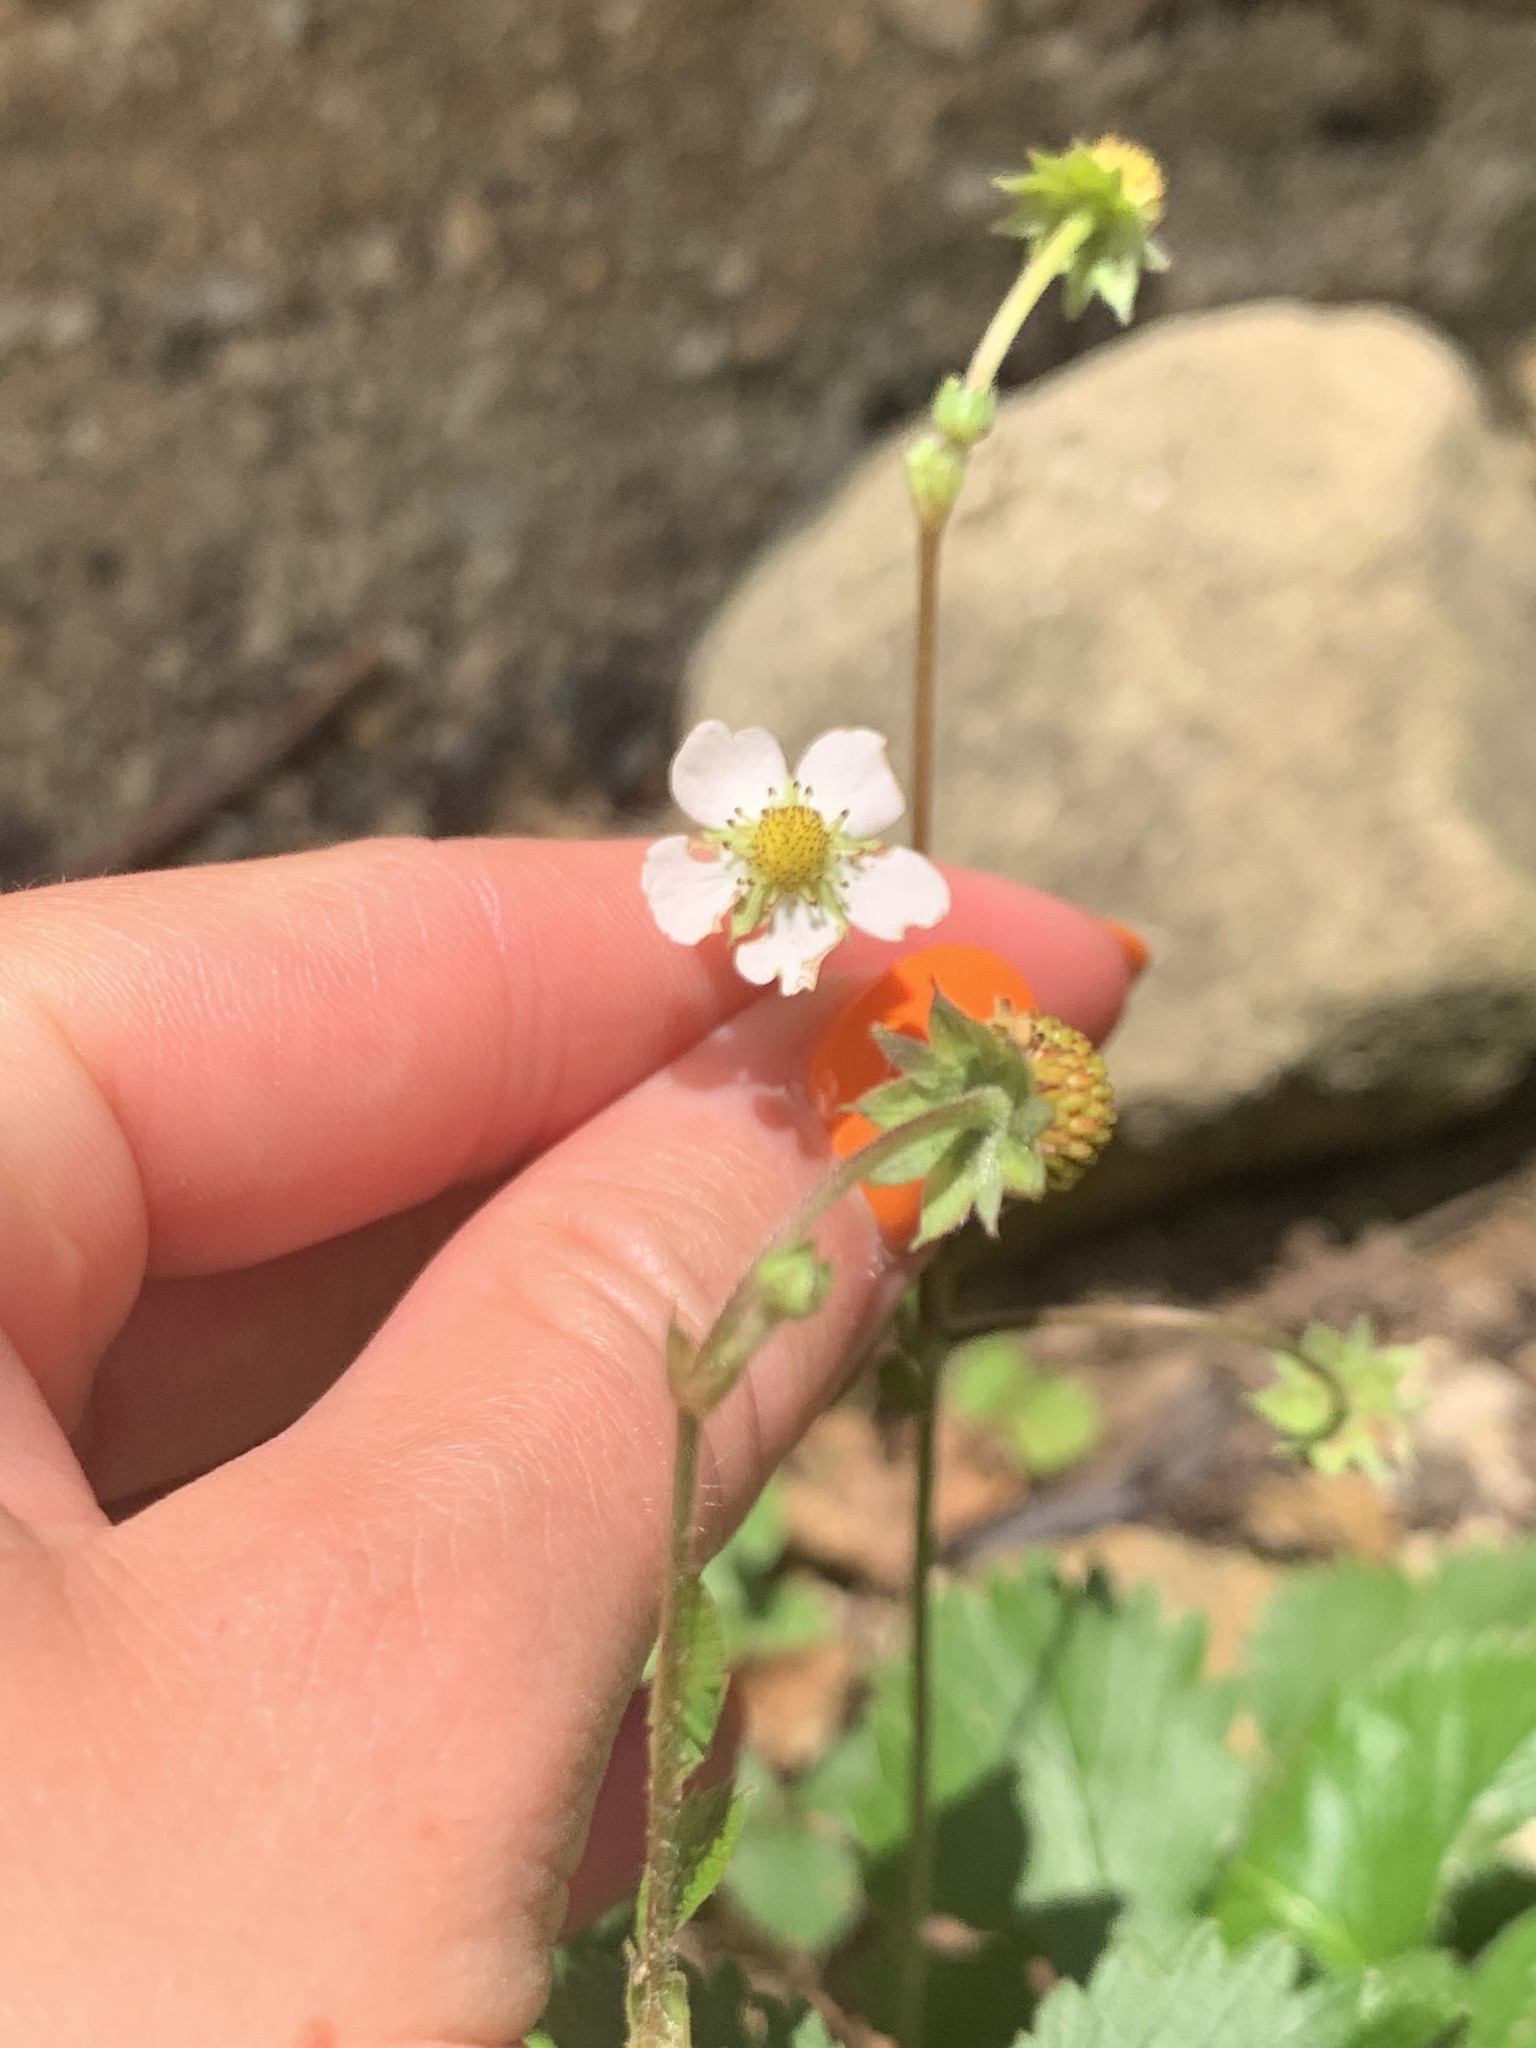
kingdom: Plantae
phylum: Tracheophyta
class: Magnoliopsida
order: Rosales
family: Rosaceae
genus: Fragaria
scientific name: Fragaria vesca
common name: Wild strawberry
